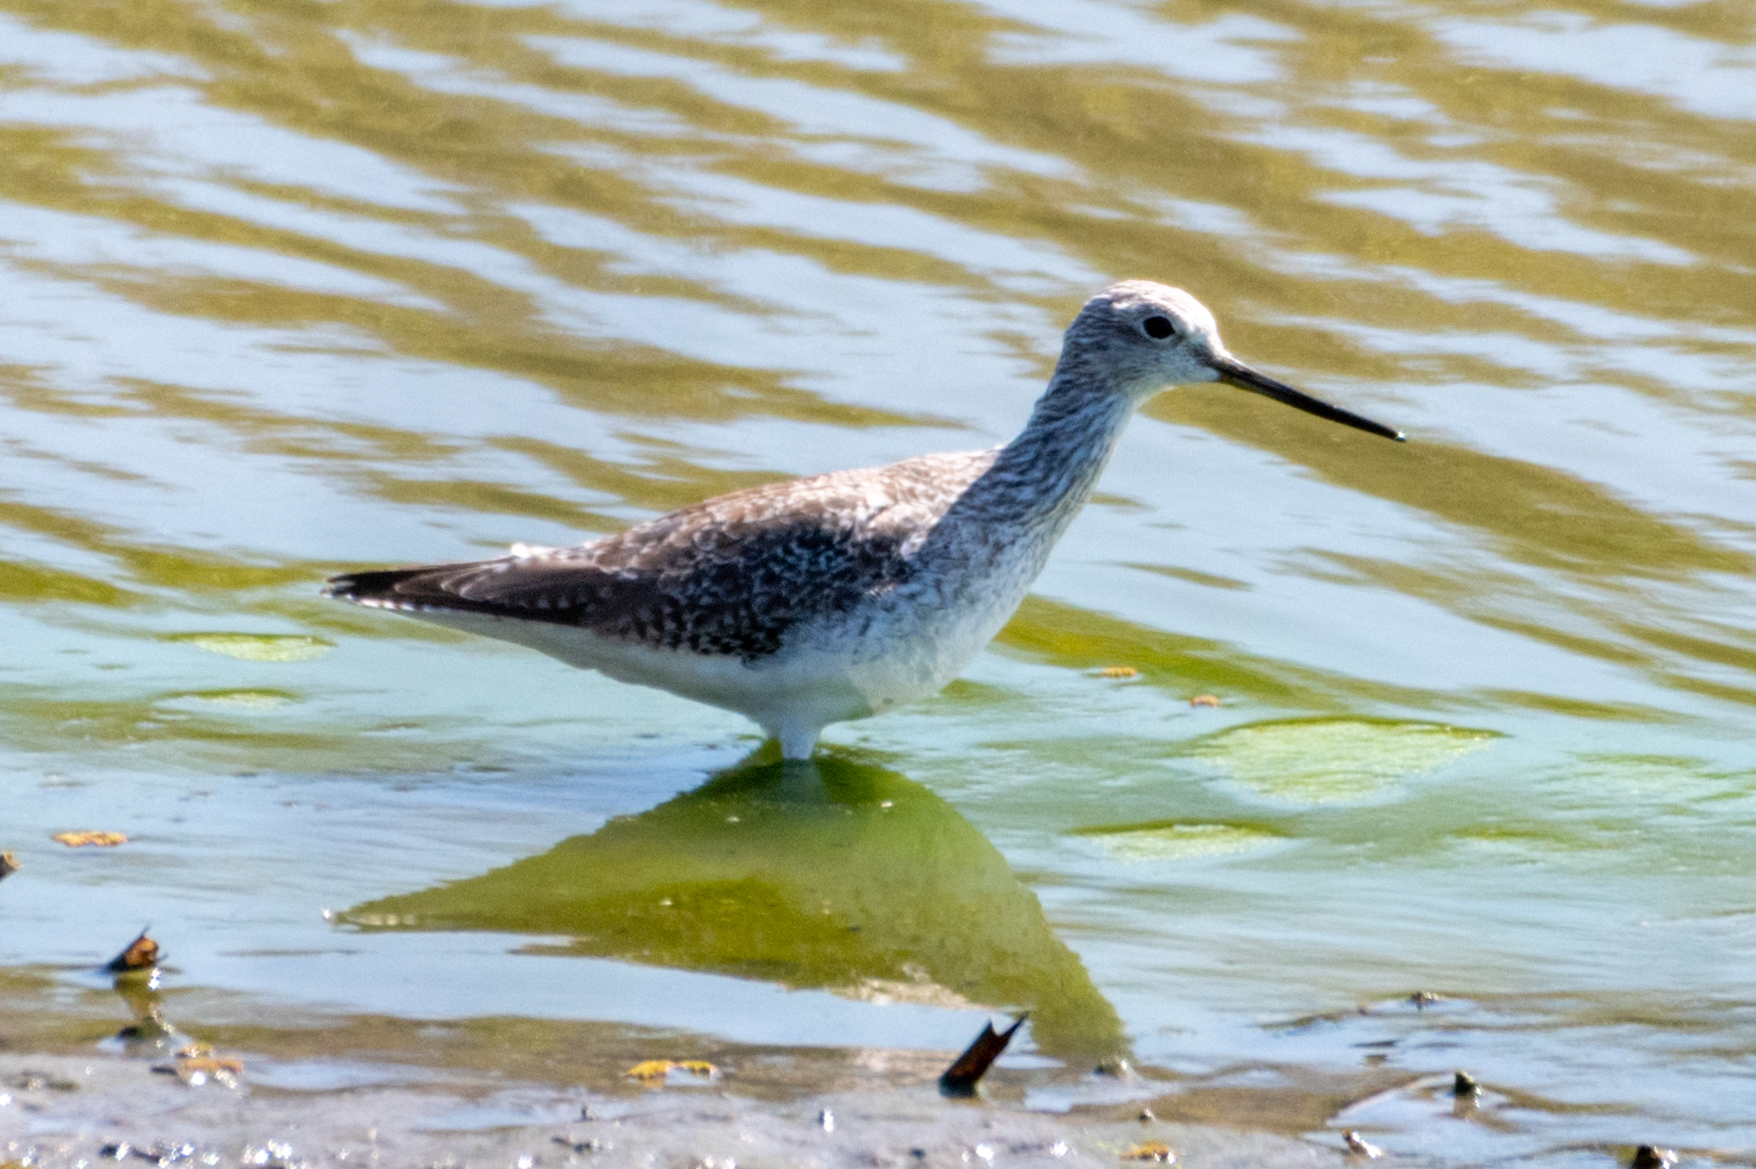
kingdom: Animalia
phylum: Chordata
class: Aves
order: Charadriiformes
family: Scolopacidae
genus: Tringa
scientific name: Tringa melanoleuca
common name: Greater yellowlegs
